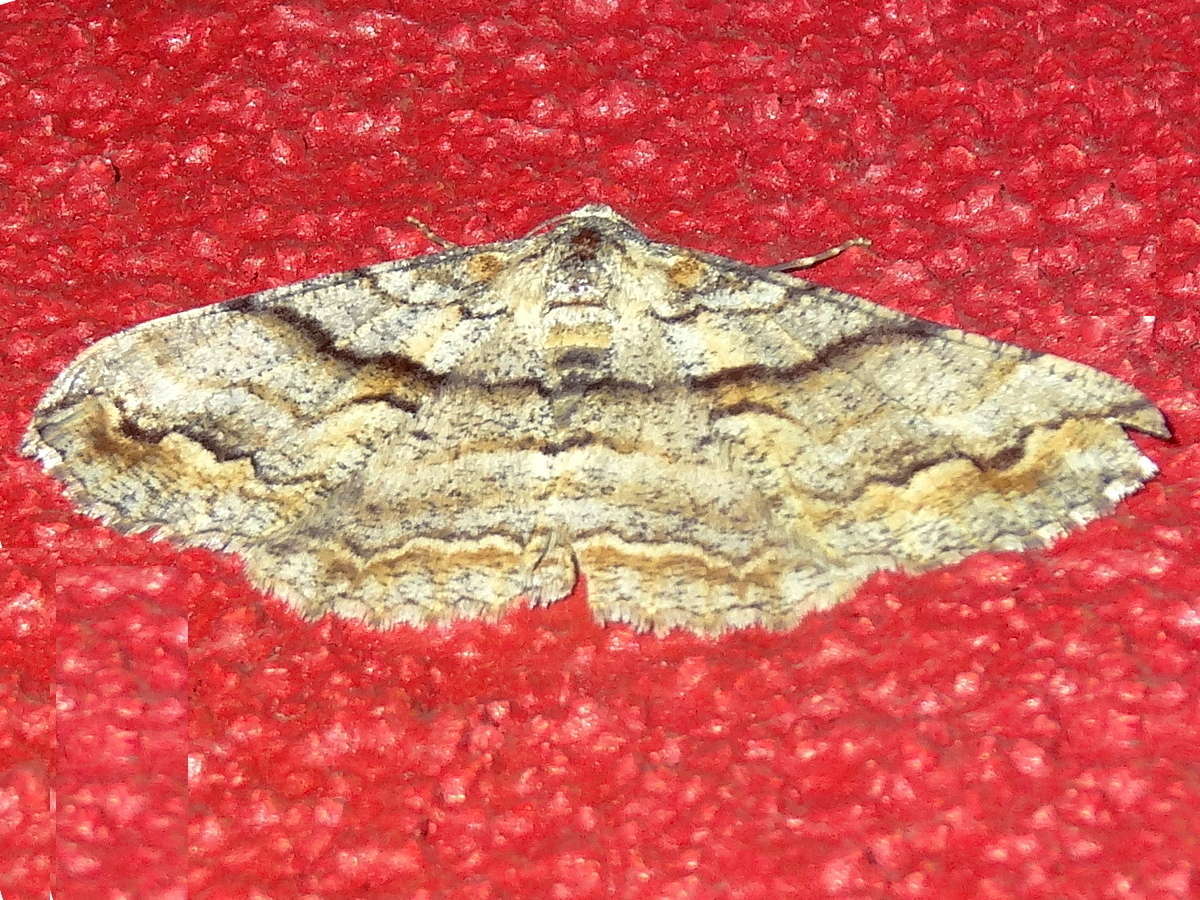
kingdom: Animalia
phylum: Arthropoda
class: Insecta
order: Lepidoptera
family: Geometridae
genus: Gastrinodes
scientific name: Gastrinodes bitaeniaria
